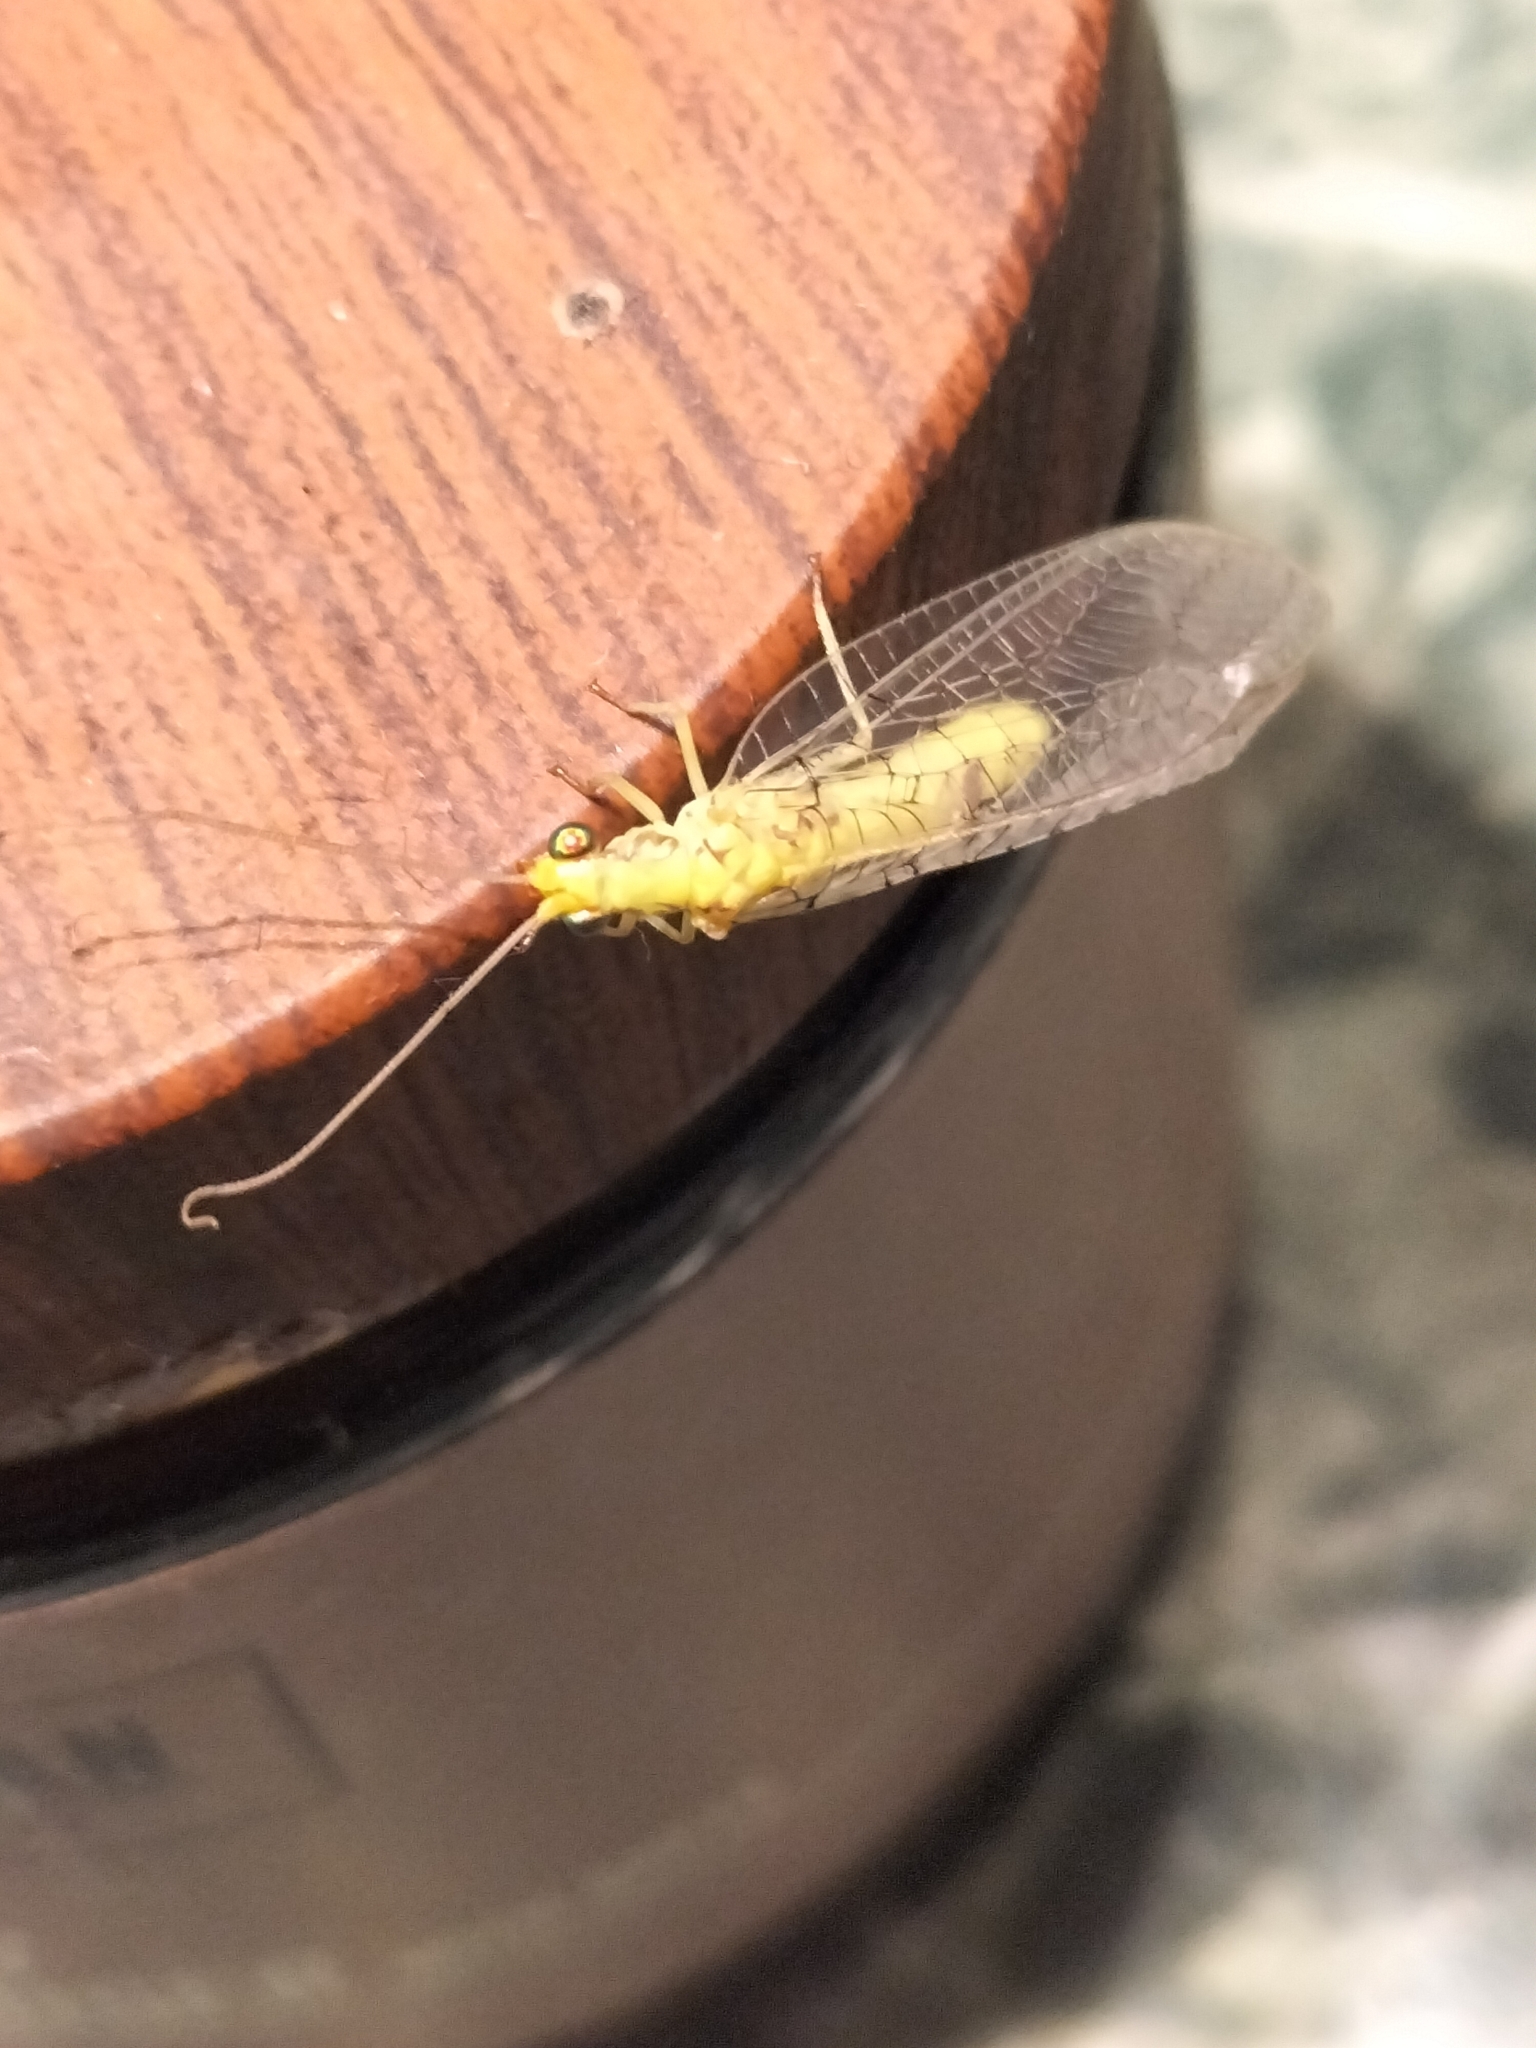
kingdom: Animalia
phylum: Arthropoda
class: Insecta
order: Neuroptera
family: Chrysopidae
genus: Italochrysa
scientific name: Italochrysa insignis
